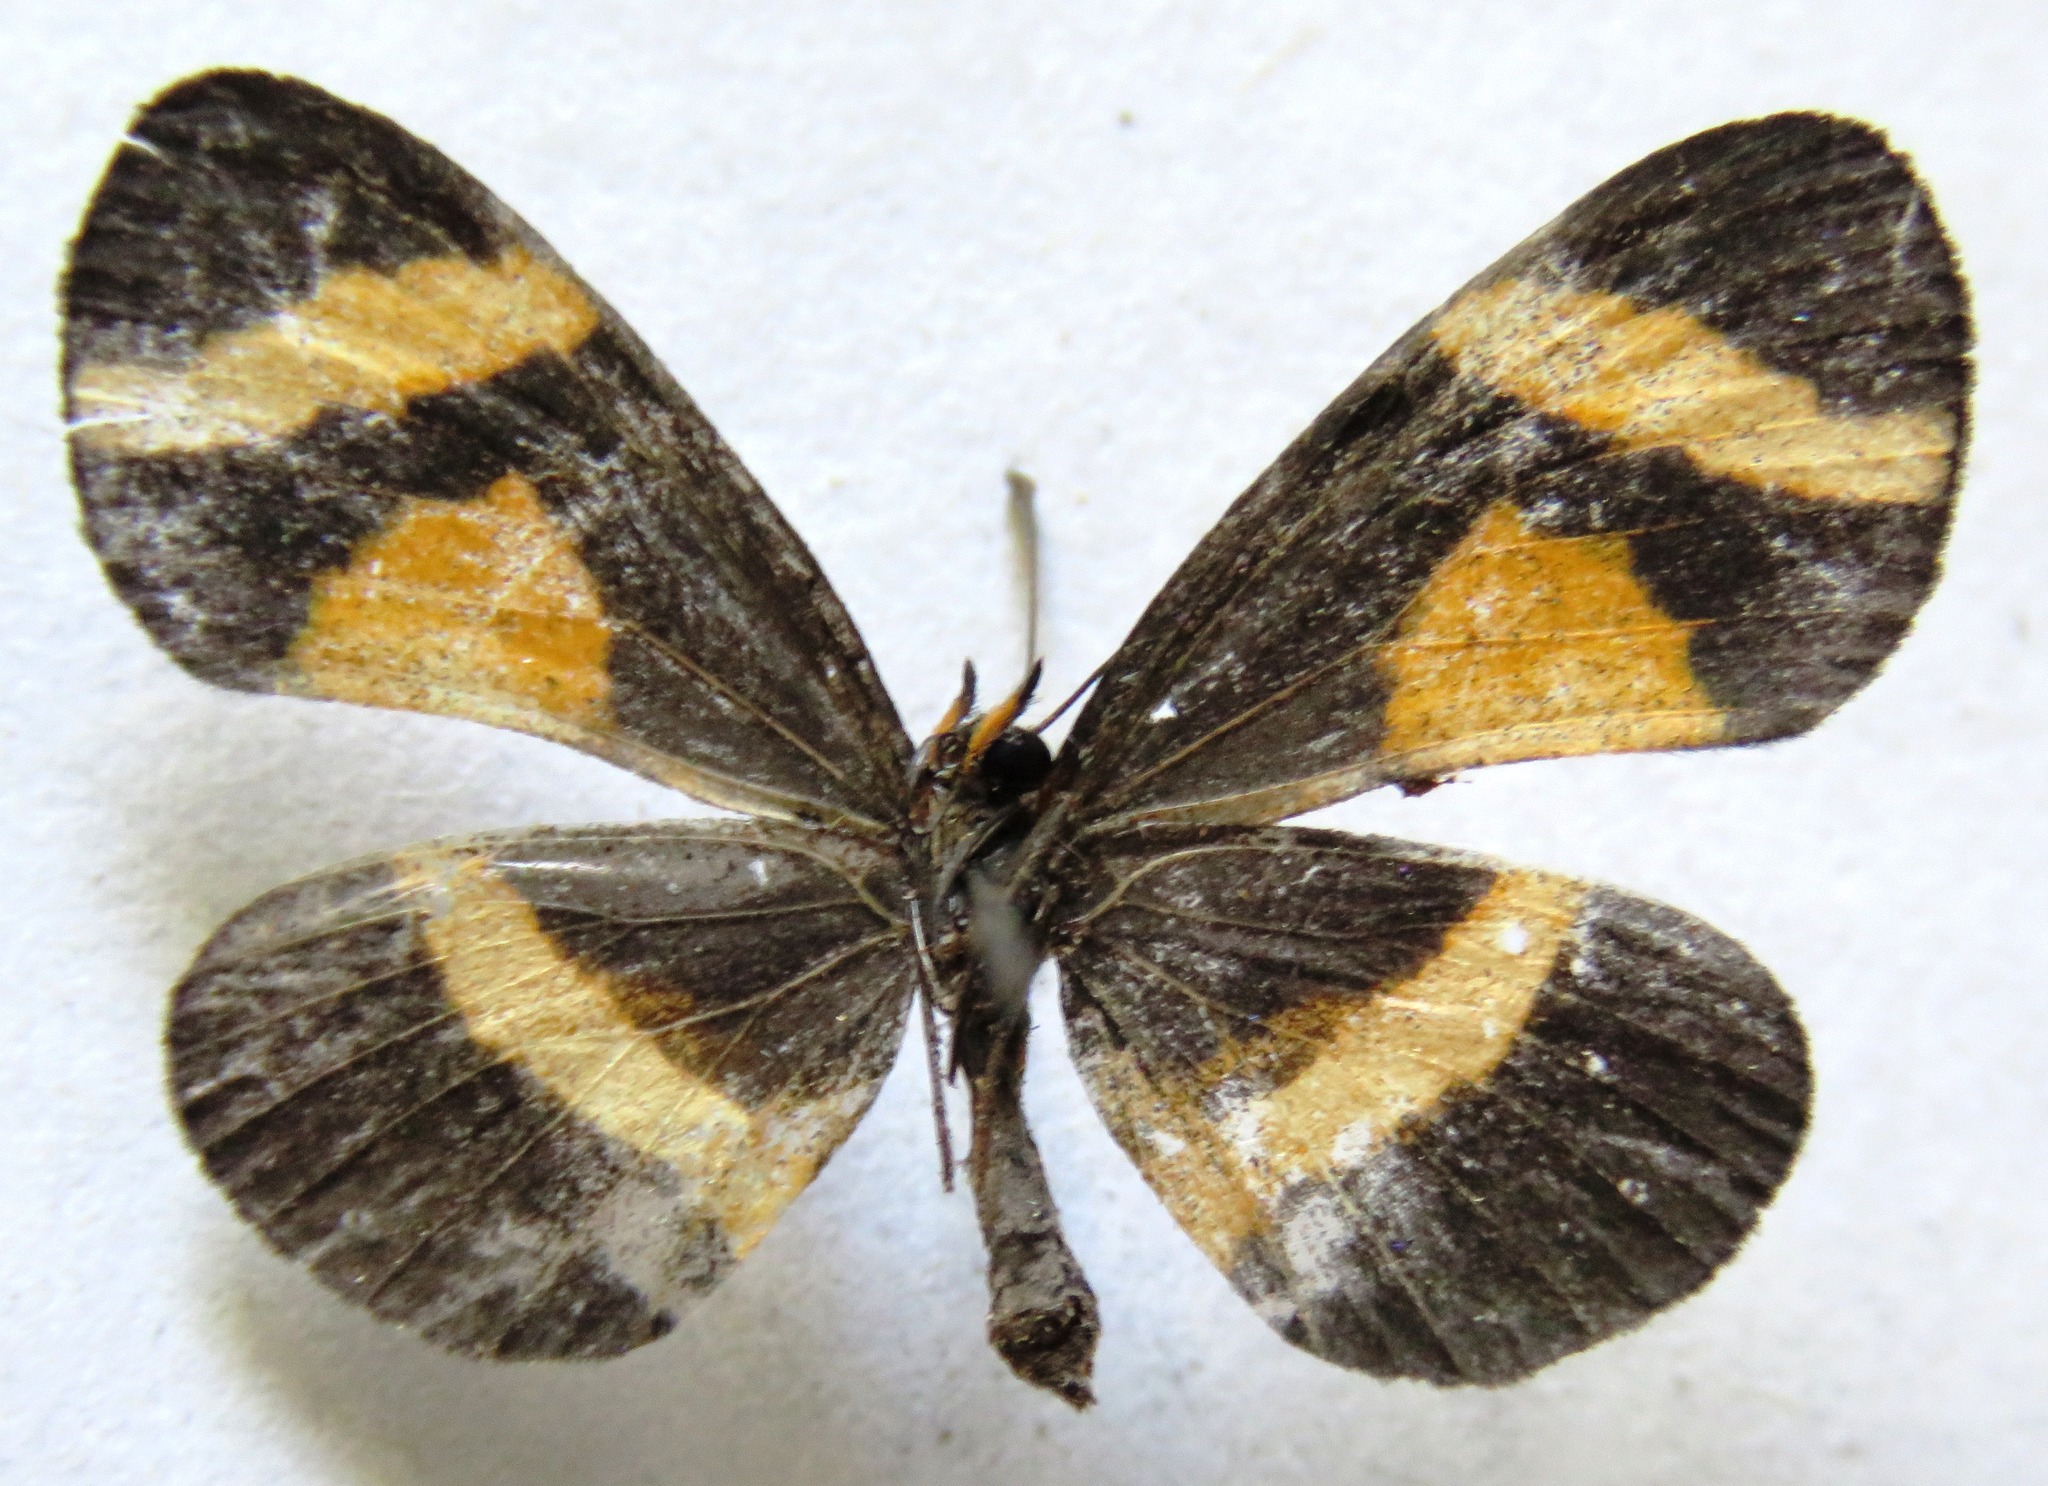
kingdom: Animalia
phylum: Arthropoda
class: Insecta
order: Lepidoptera
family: Nymphalidae
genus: Microtia
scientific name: Microtia elva
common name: Elf
